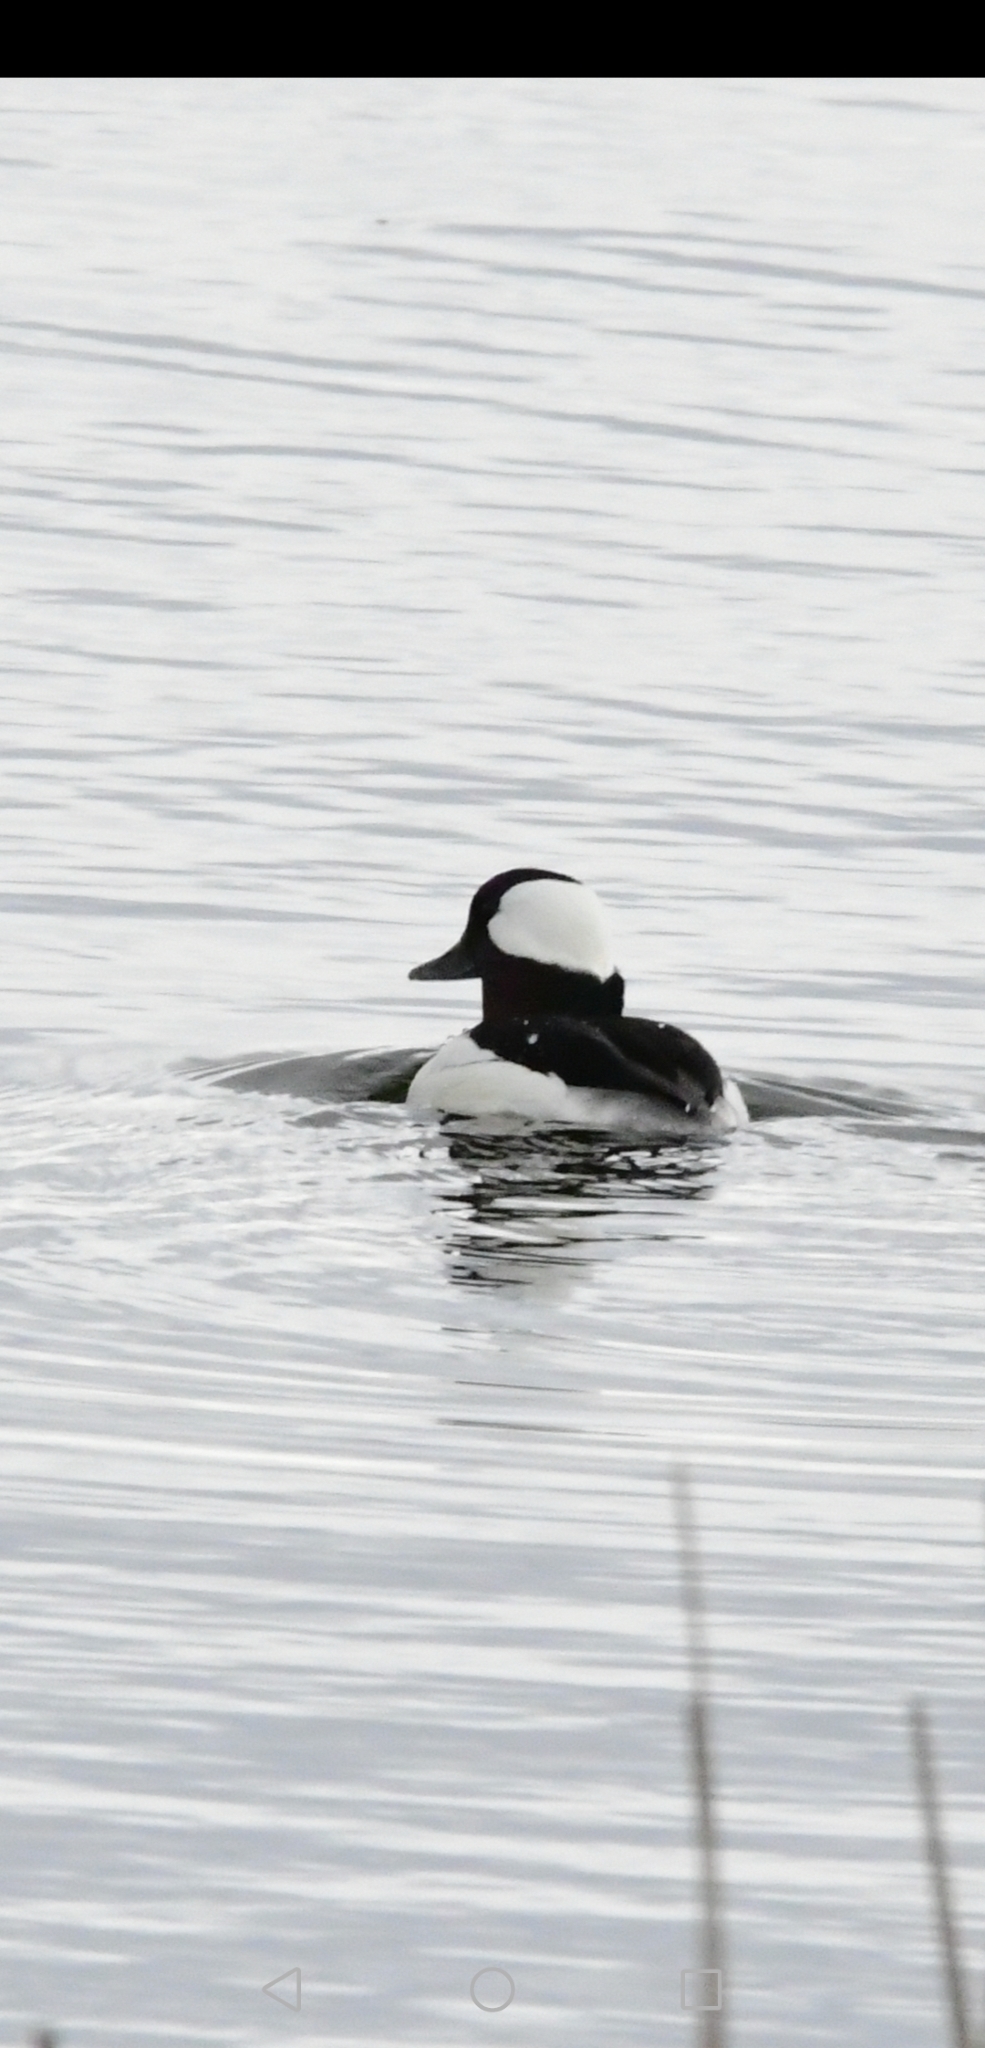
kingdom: Animalia
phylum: Chordata
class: Aves
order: Anseriformes
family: Anatidae
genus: Bucephala
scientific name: Bucephala albeola
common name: Bufflehead
